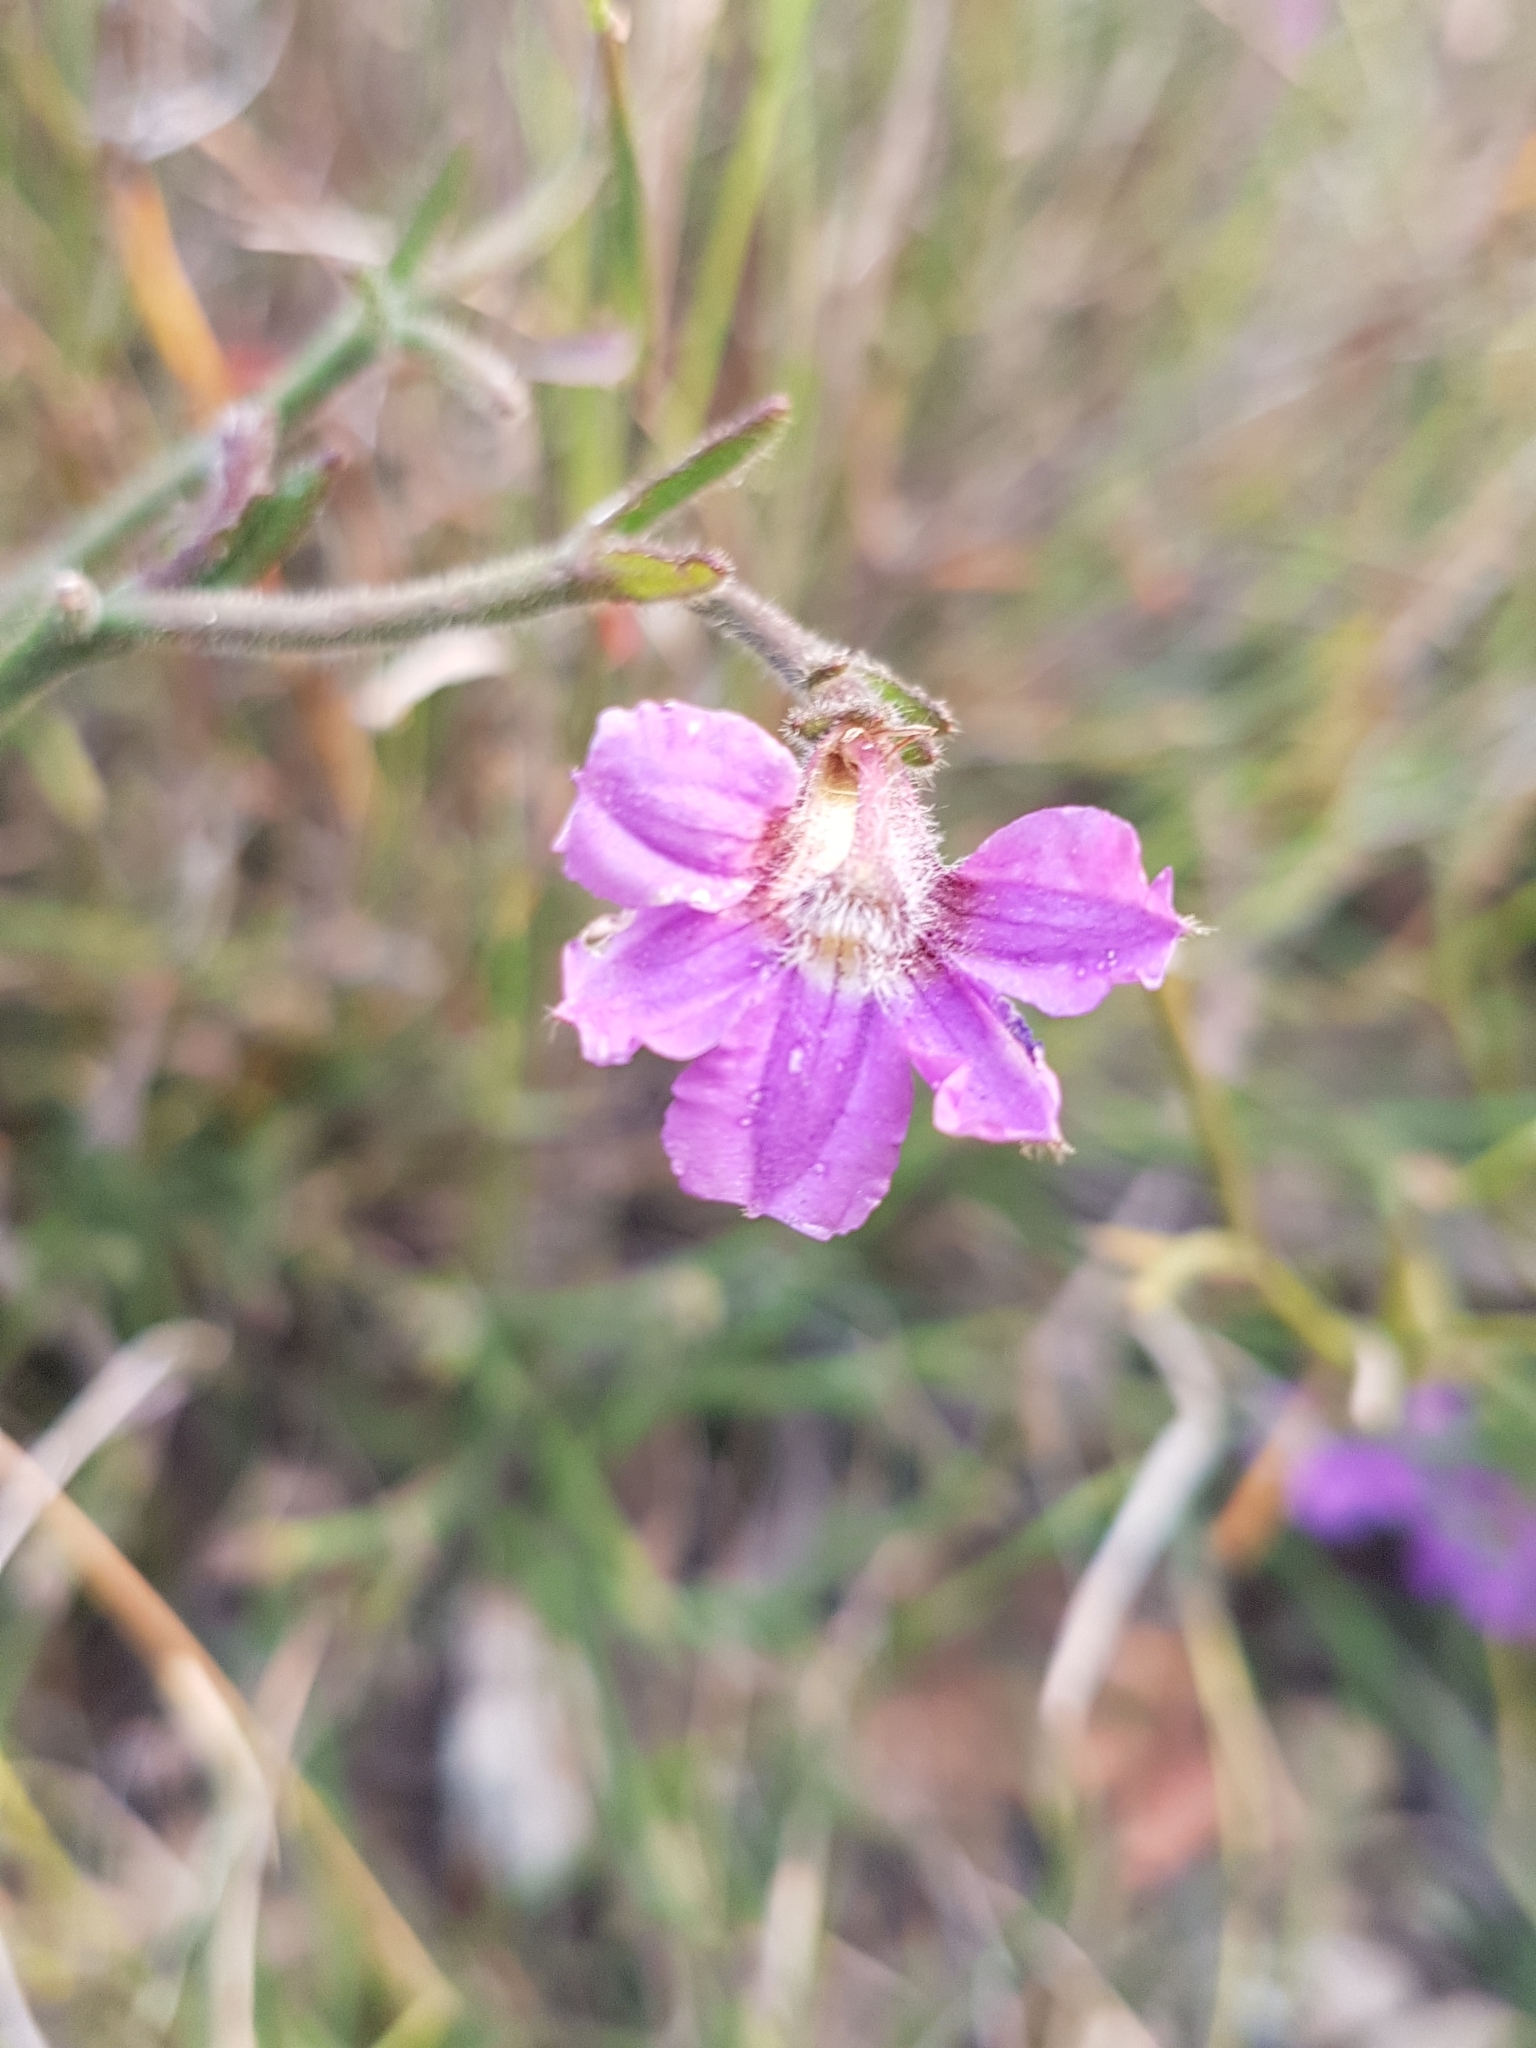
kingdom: Plantae
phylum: Tracheophyta
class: Magnoliopsida
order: Asterales
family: Goodeniaceae
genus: Scaevola
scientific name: Scaevola ramosissima
